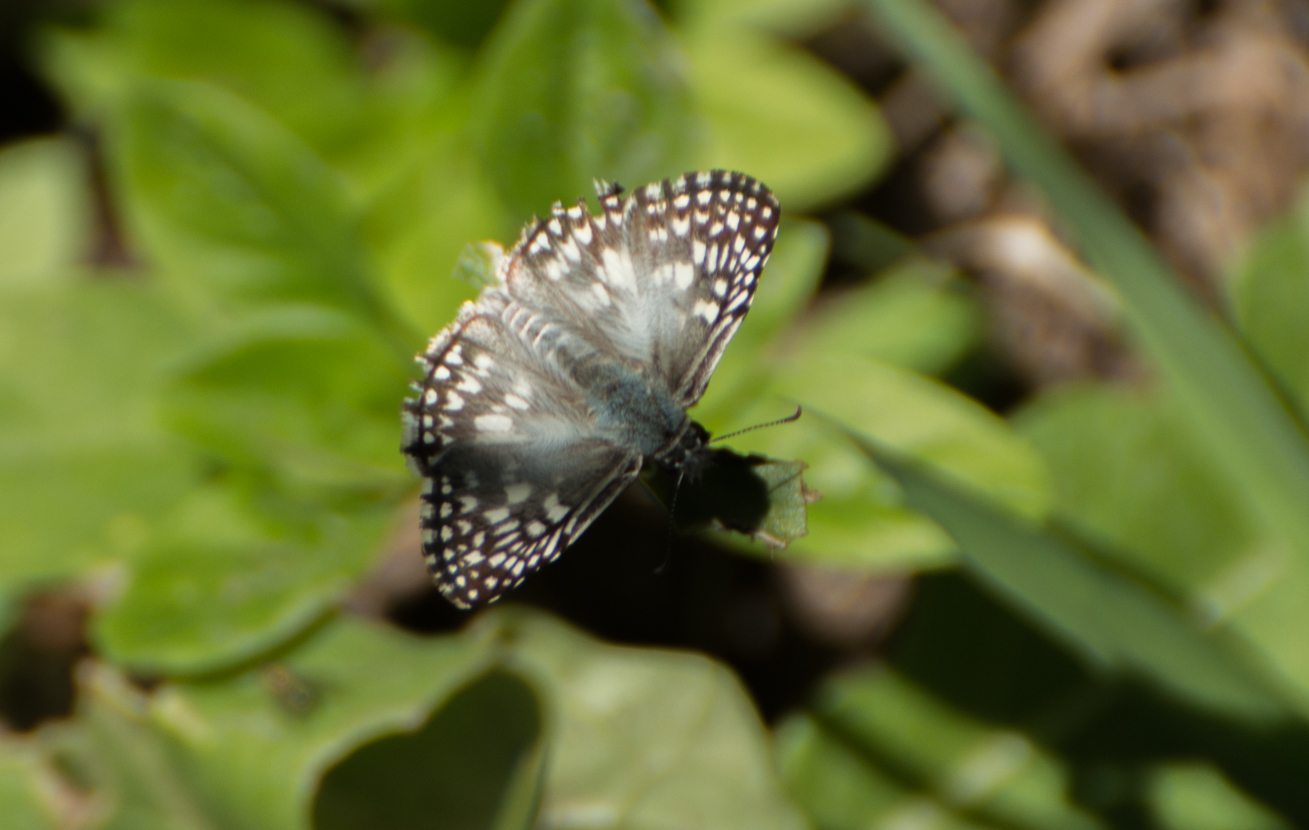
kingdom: Animalia
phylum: Arthropoda
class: Insecta
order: Lepidoptera
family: Hesperiidae
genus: Pyrgus
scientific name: Pyrgus oileus
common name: Tropical checkered-skipper
